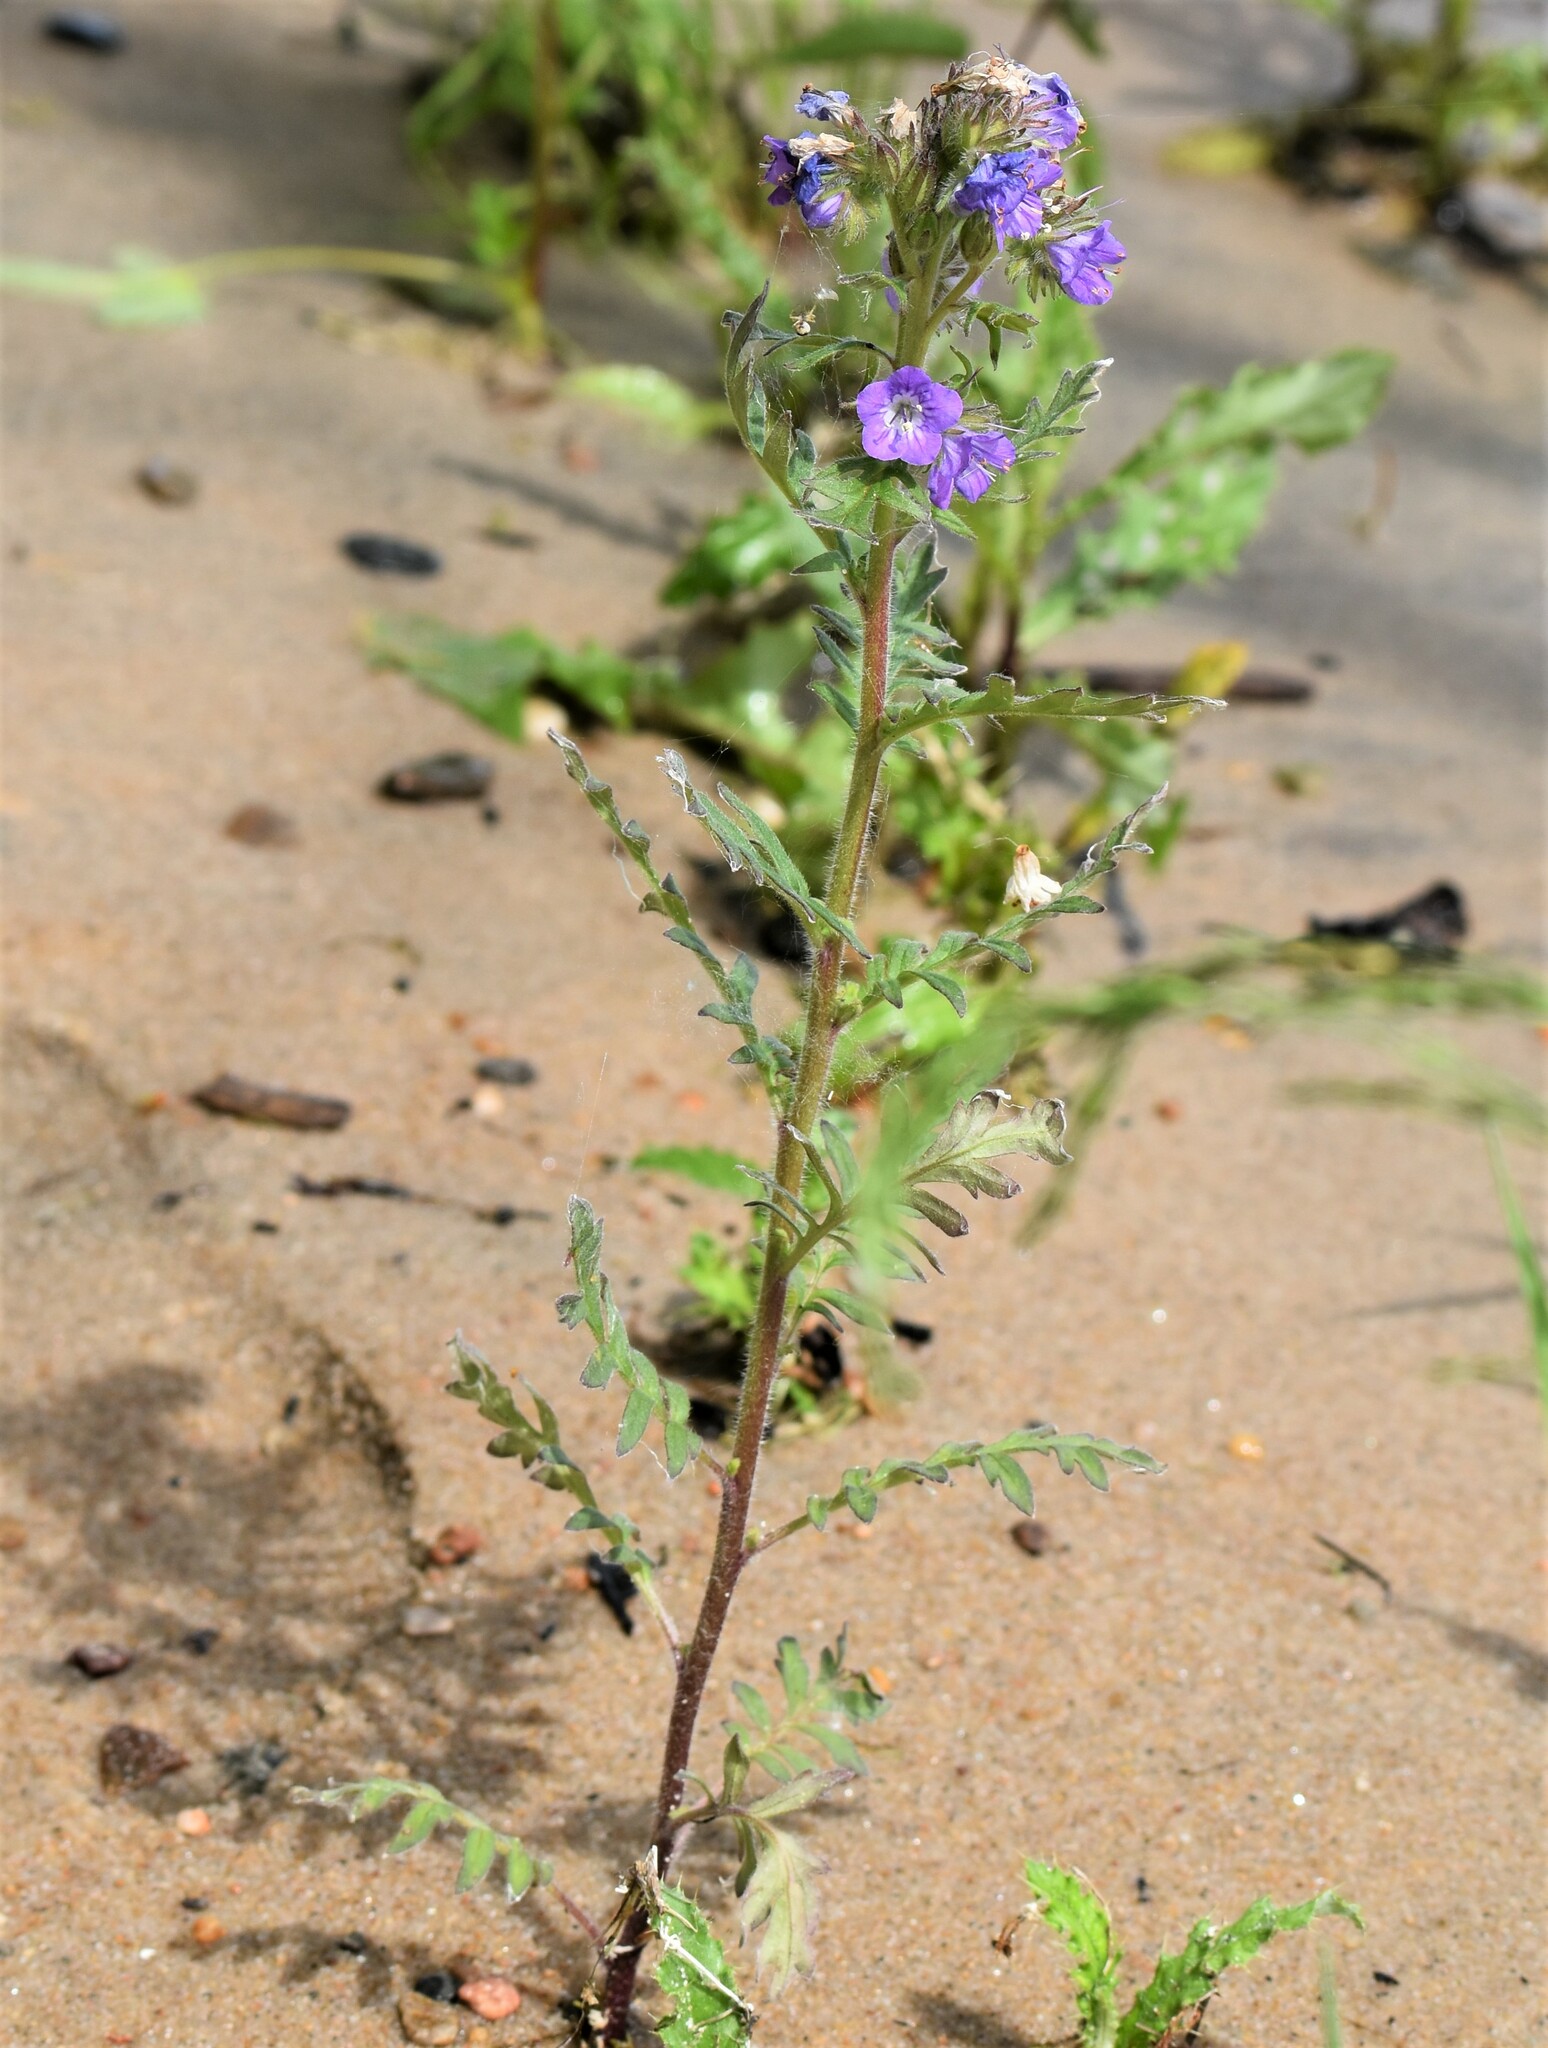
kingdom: Plantae
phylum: Tracheophyta
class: Magnoliopsida
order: Boraginales
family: Hydrophyllaceae
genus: Phacelia
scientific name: Phacelia franklinii
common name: Franklin's phacelia
